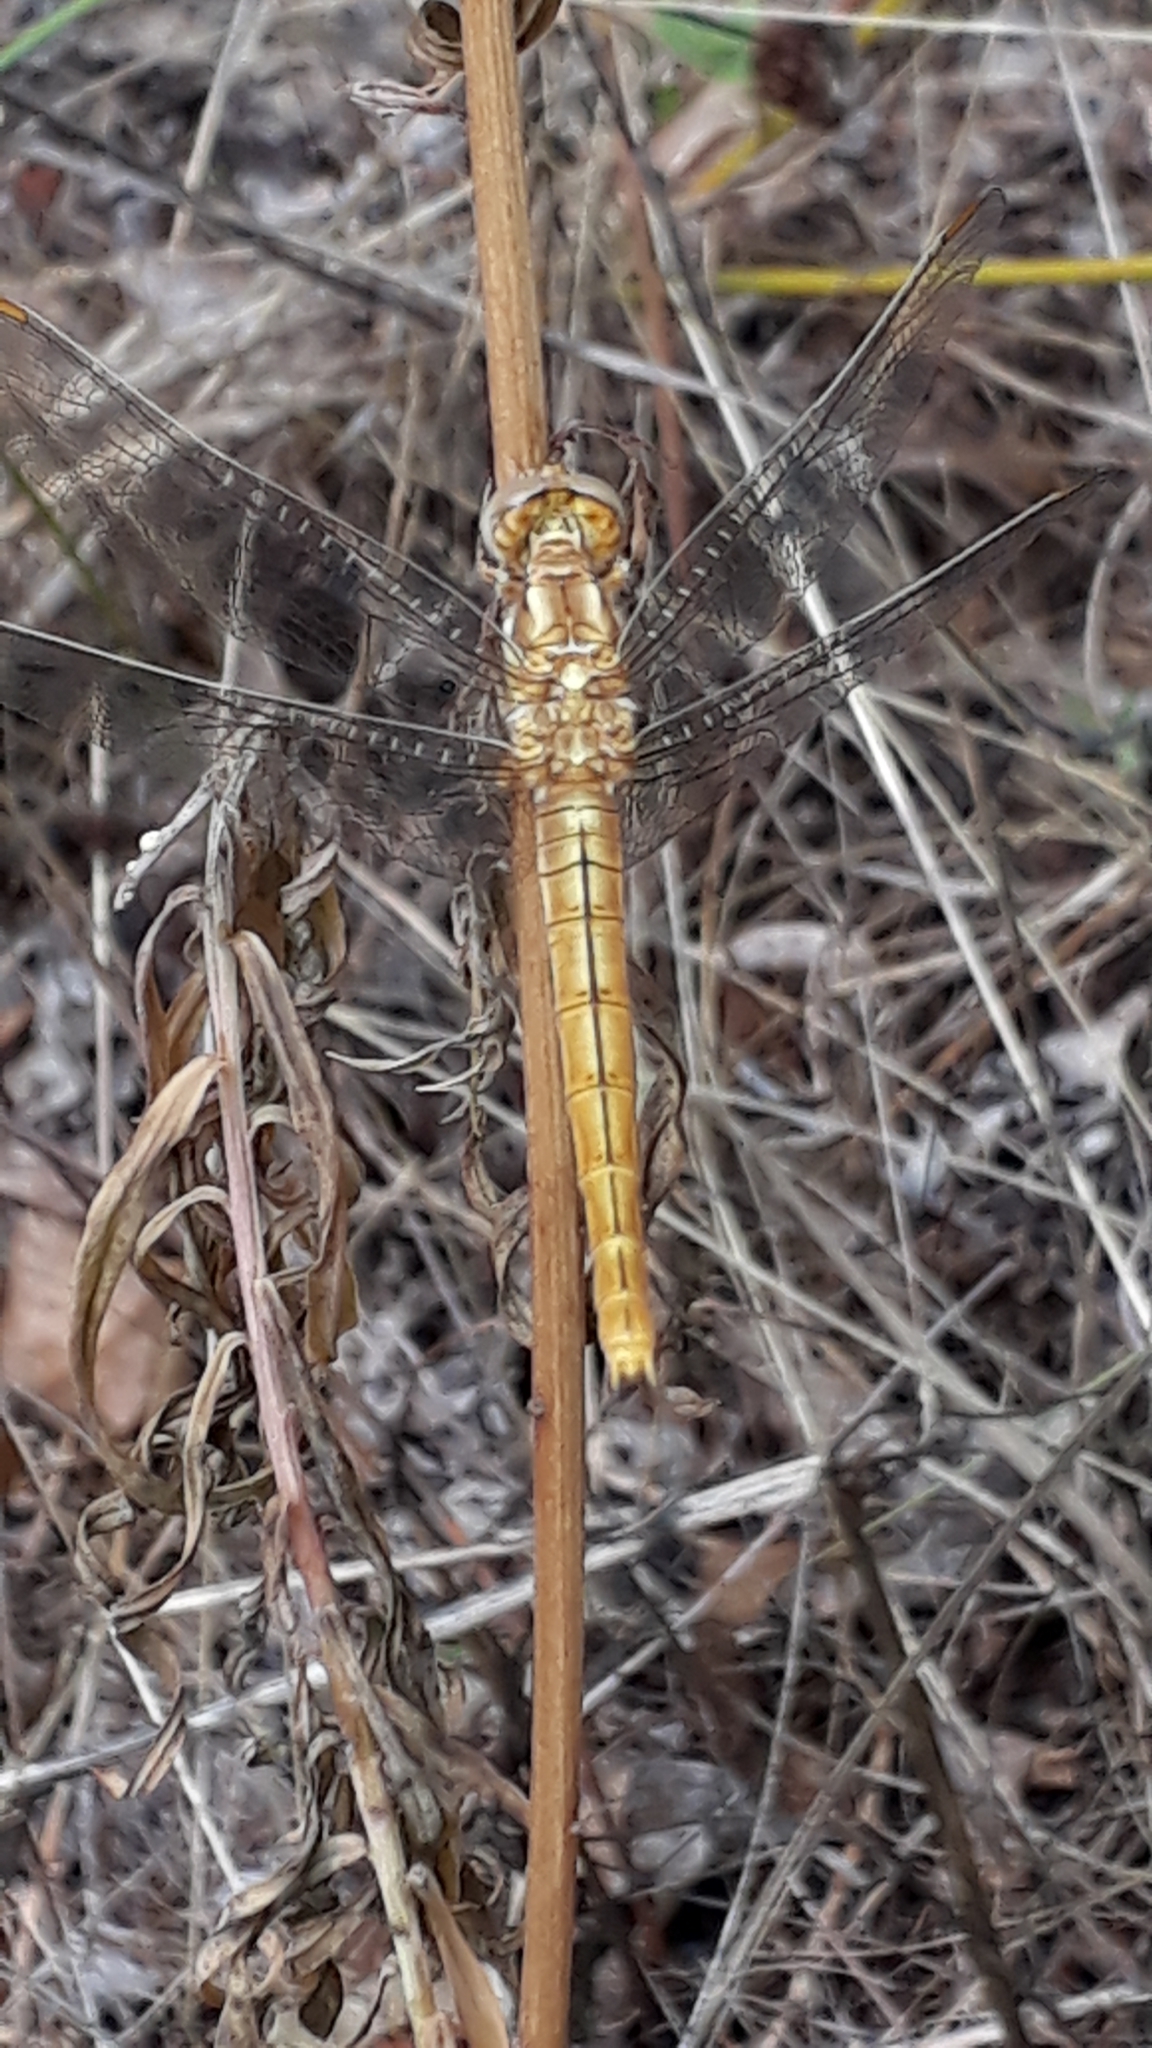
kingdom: Animalia
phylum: Arthropoda
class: Insecta
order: Odonata
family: Libellulidae
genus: Orthetrum
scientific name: Orthetrum brunneum
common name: Southern skimmer
